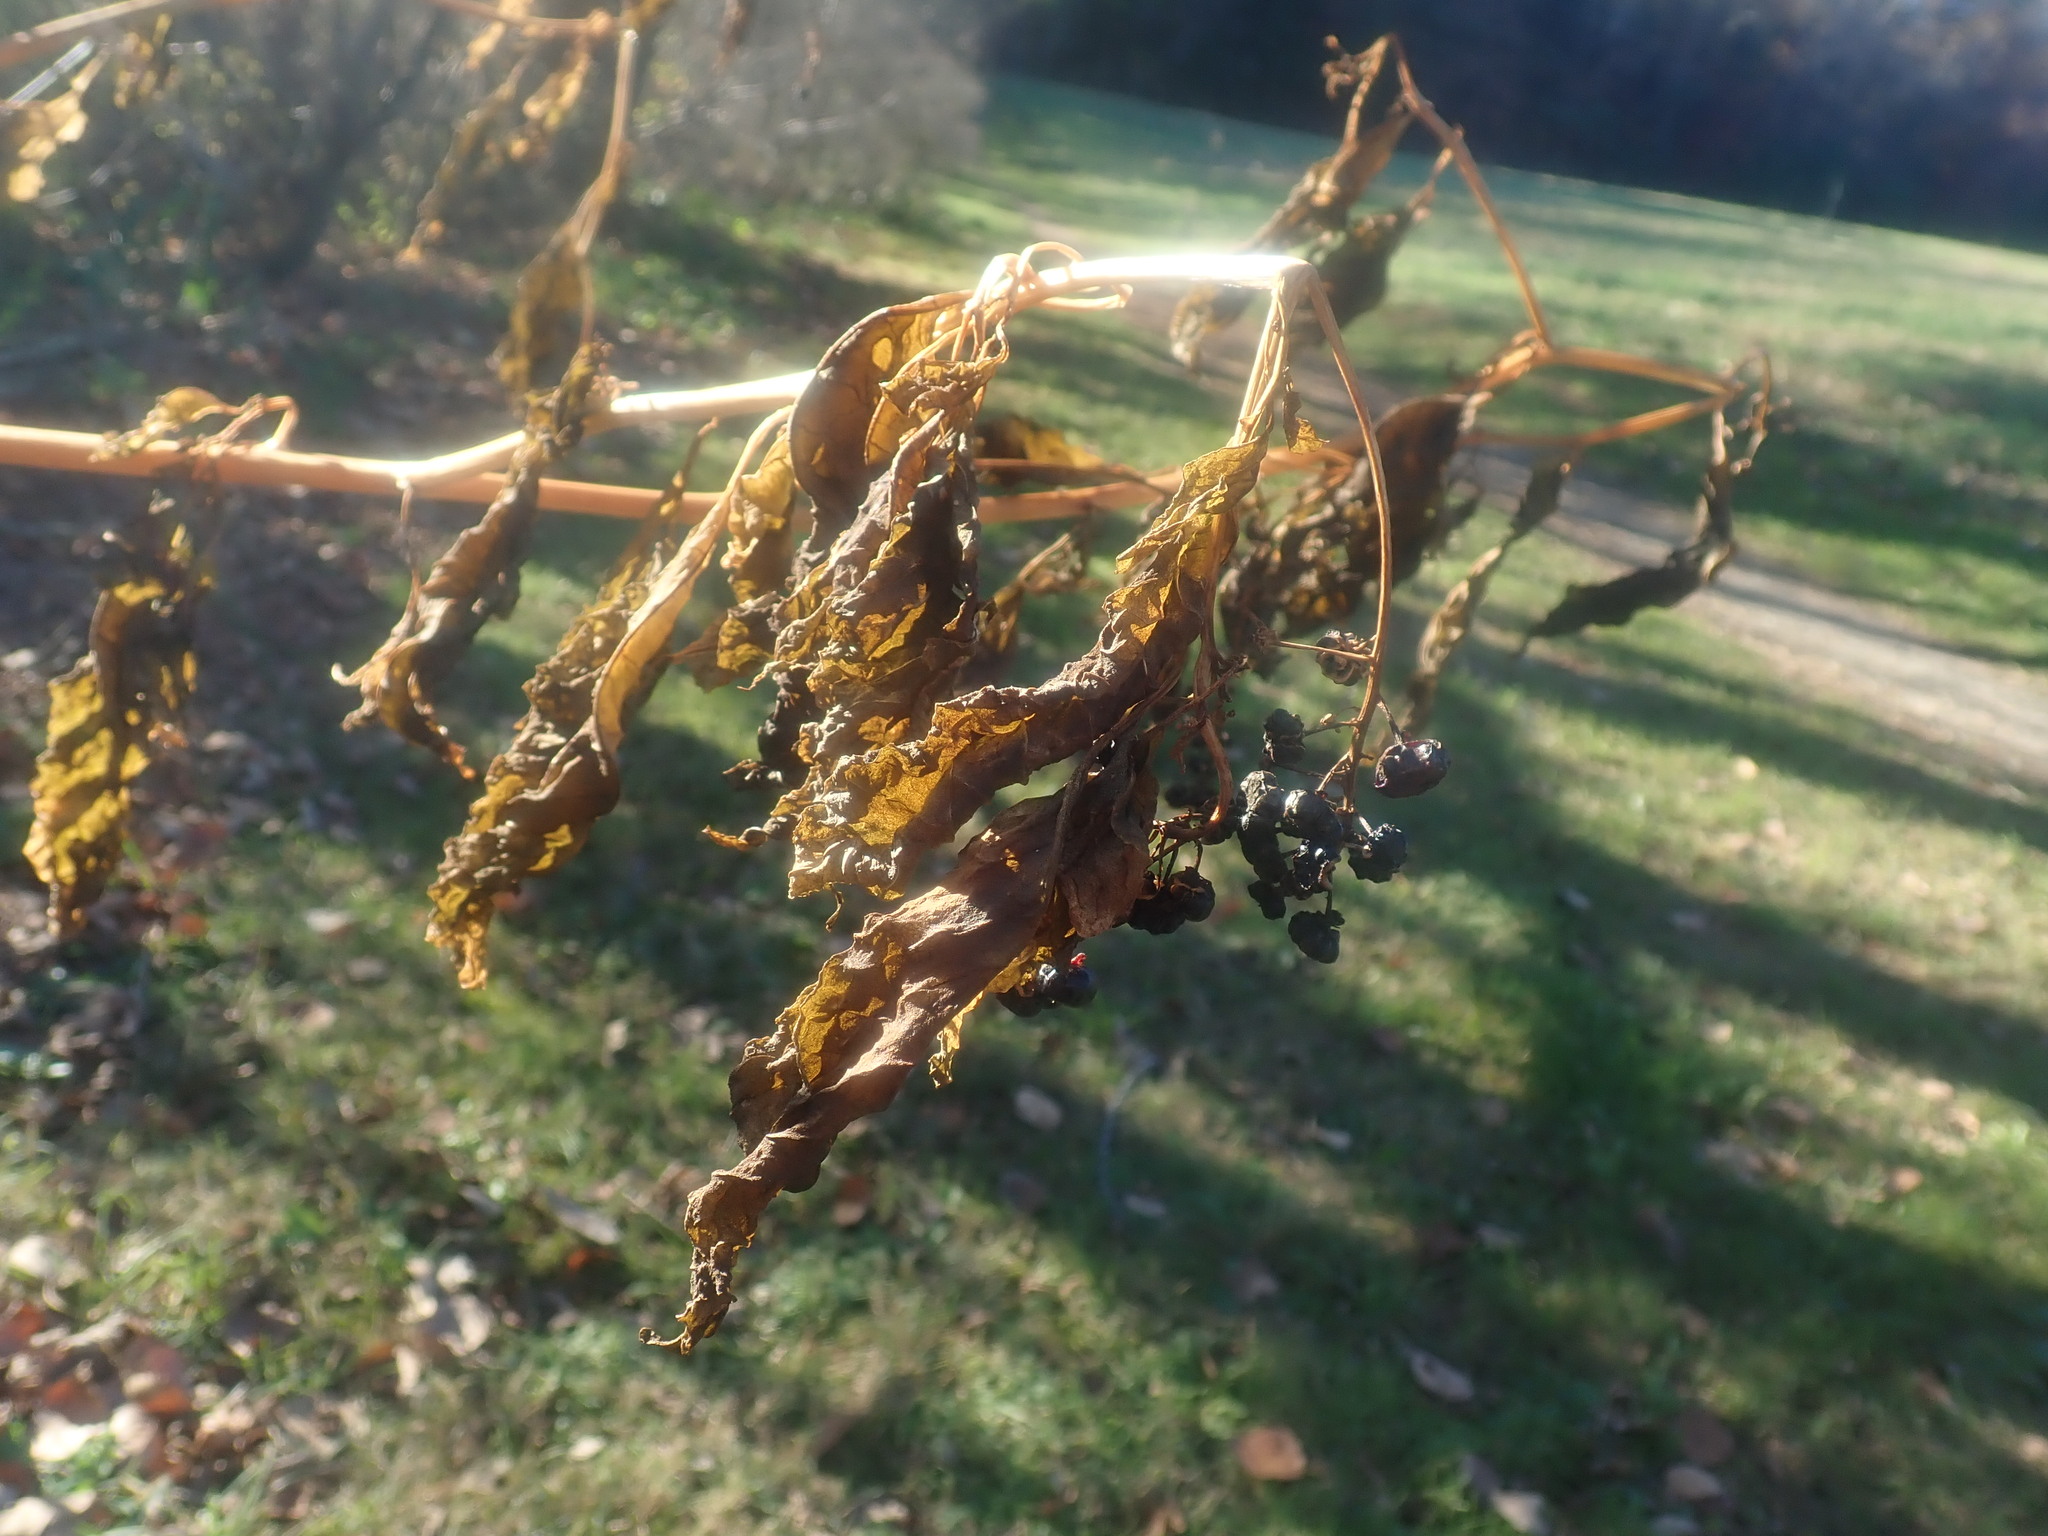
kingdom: Plantae
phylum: Tracheophyta
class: Magnoliopsida
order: Caryophyllales
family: Phytolaccaceae
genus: Phytolacca
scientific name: Phytolacca americana
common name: American pokeweed
